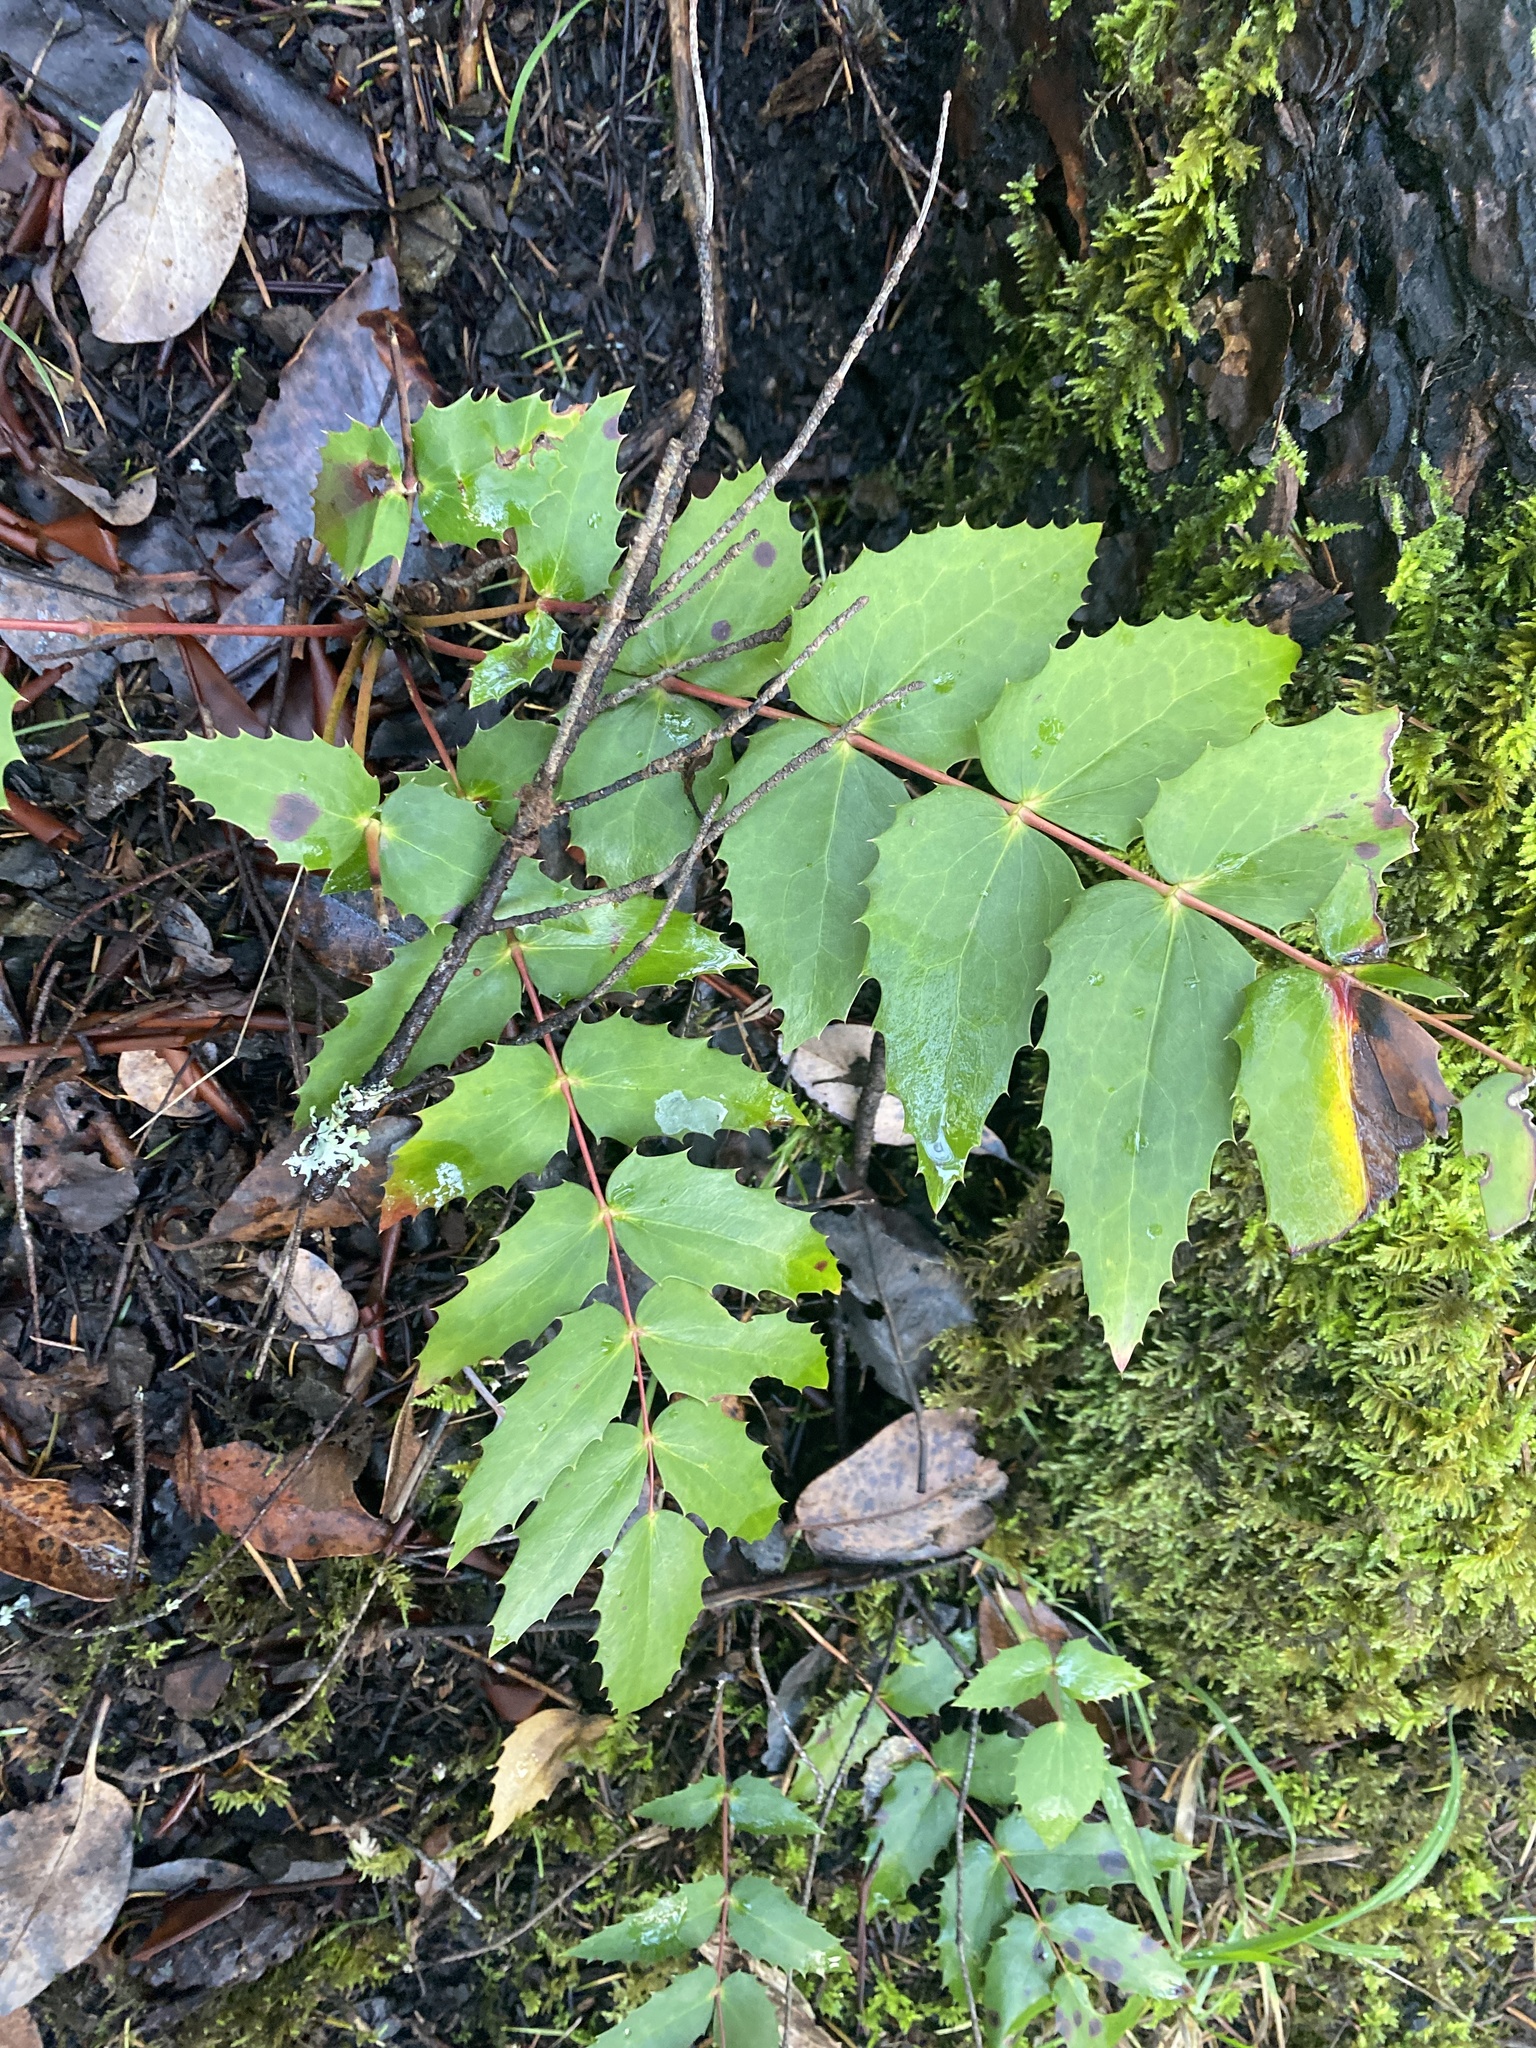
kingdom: Plantae
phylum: Tracheophyta
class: Magnoliopsida
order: Ranunculales
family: Berberidaceae
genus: Mahonia
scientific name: Mahonia nervosa
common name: Cascade oregon-grape
